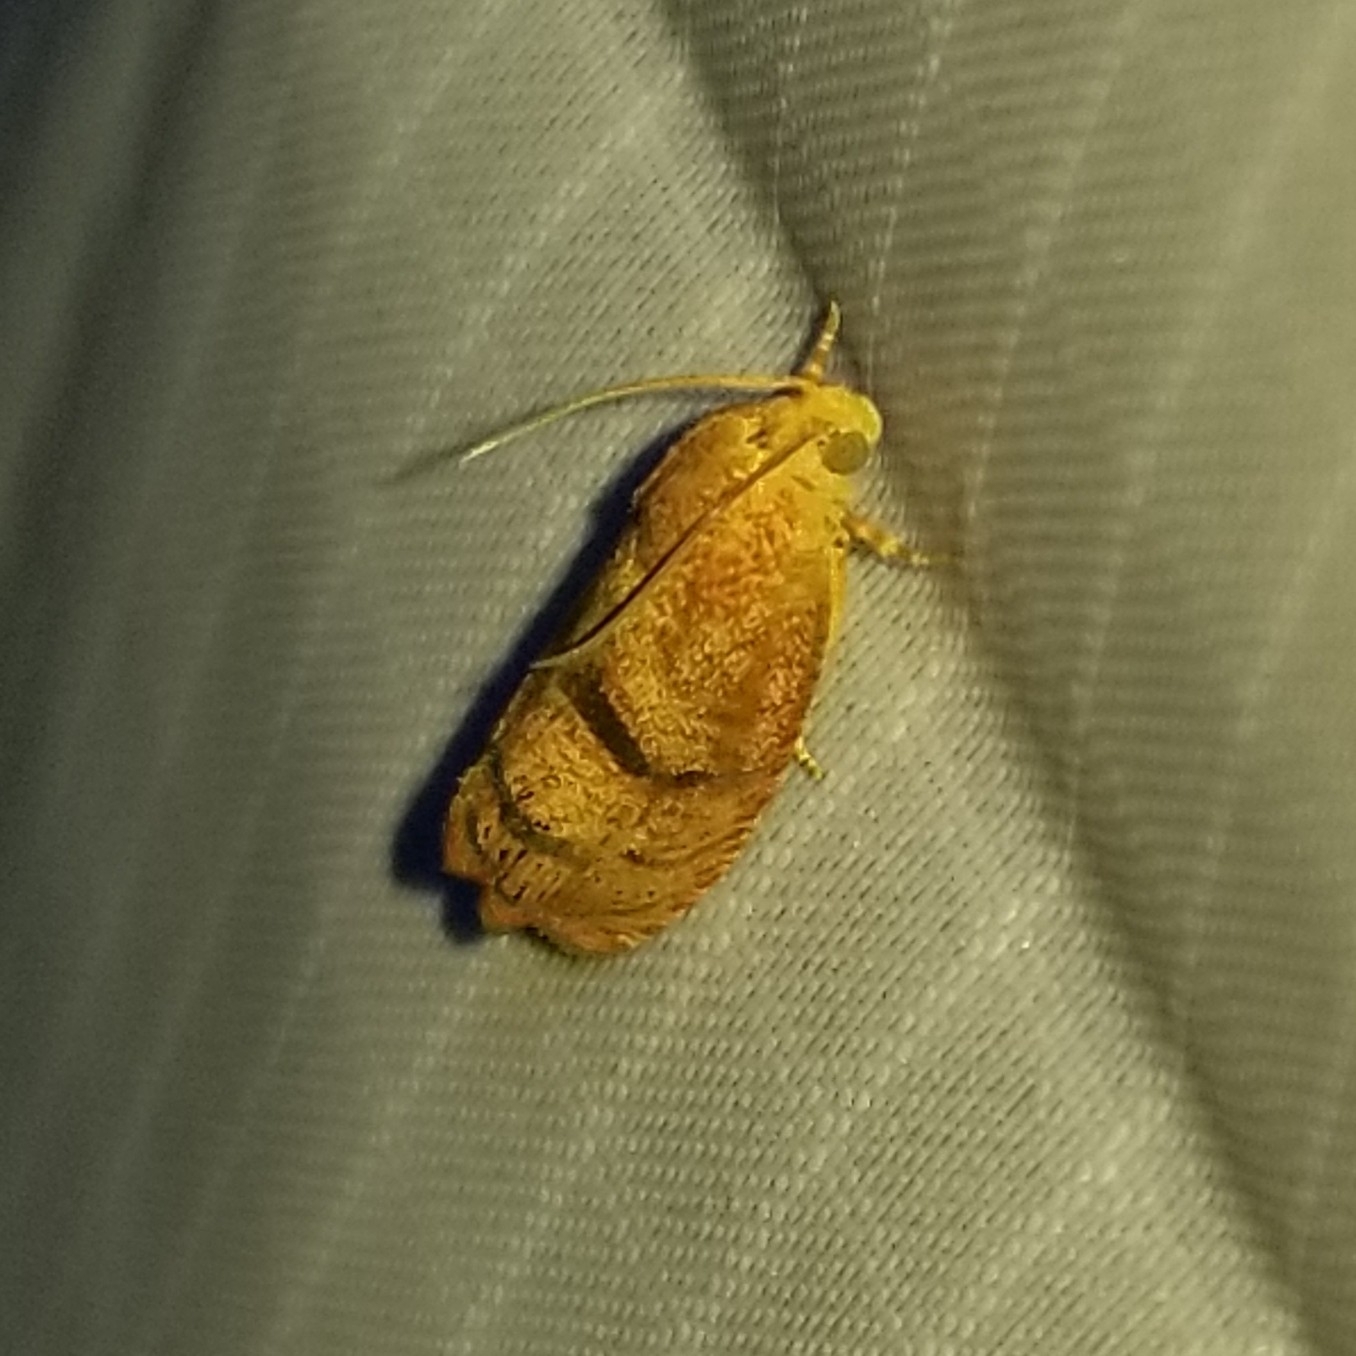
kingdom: Animalia
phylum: Arthropoda
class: Insecta
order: Lepidoptera
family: Tortricidae
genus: Cydia
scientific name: Cydia latiferreana
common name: Filbertworm moth
